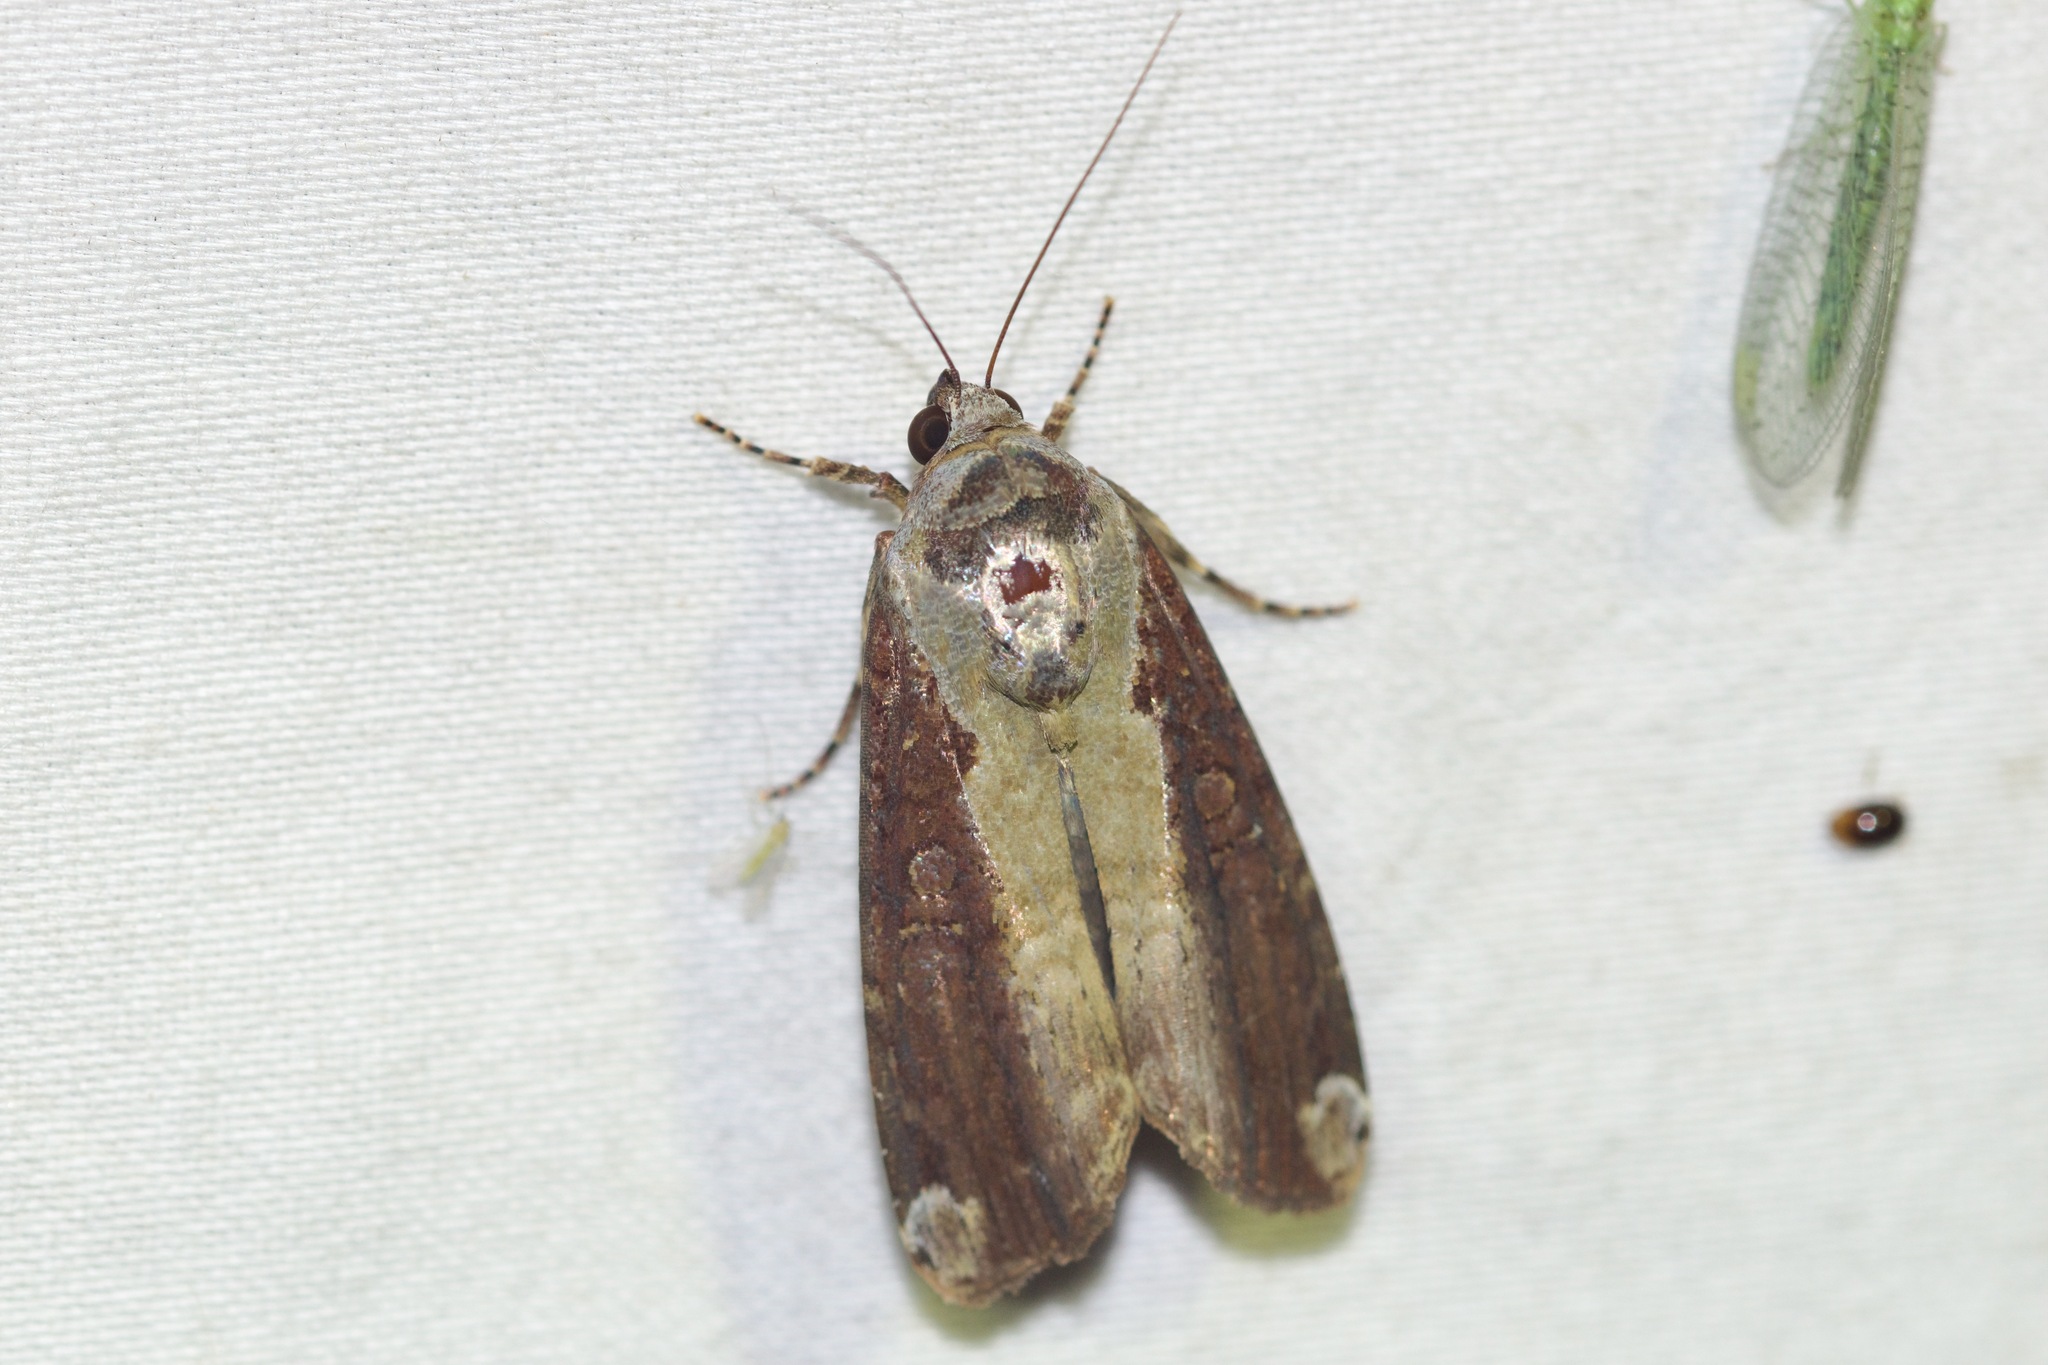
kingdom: Animalia
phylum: Arthropoda
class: Insecta
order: Lepidoptera
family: Noctuidae
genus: Magusa
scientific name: Magusa divaricata
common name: Orb narrow-winged moth
